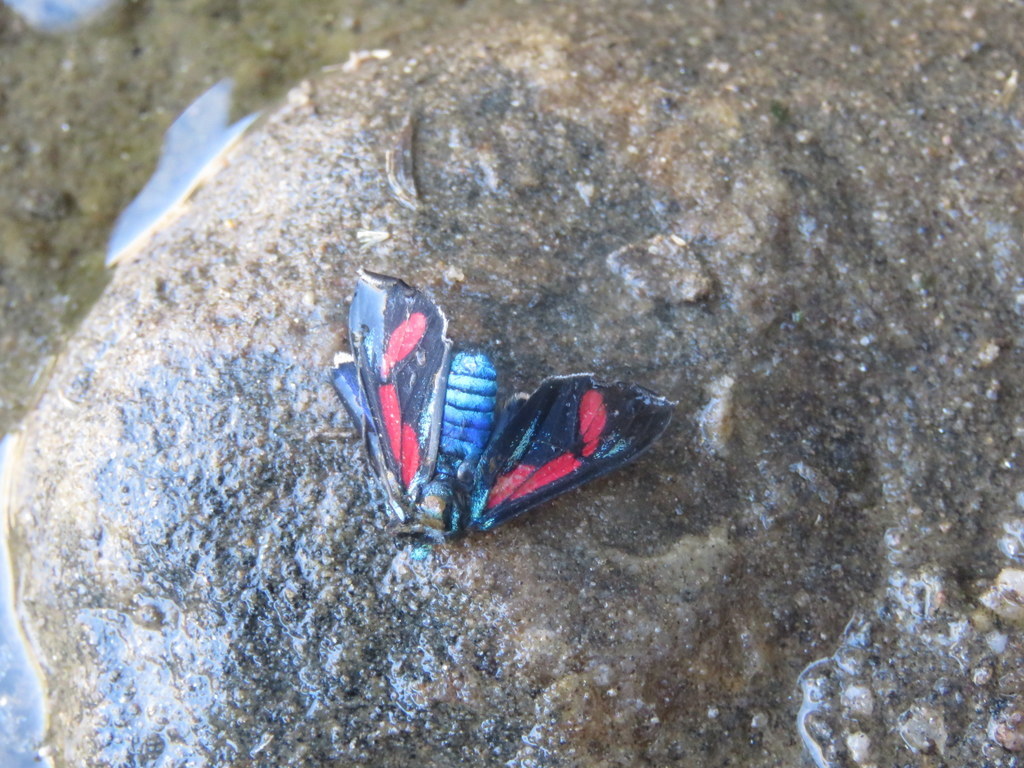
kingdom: Animalia
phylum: Arthropoda
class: Insecta
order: Lepidoptera
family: Erebidae
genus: Cyanopepla
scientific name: Cyanopepla pretiosa
